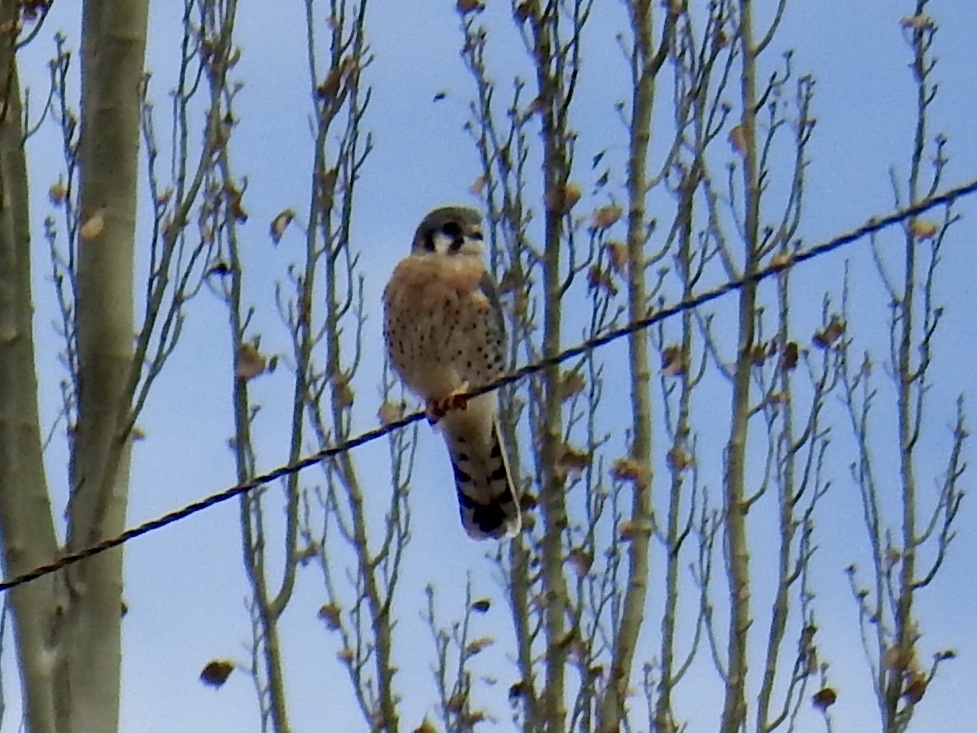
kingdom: Animalia
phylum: Chordata
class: Aves
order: Falconiformes
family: Falconidae
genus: Falco
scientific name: Falco sparverius
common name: American kestrel
